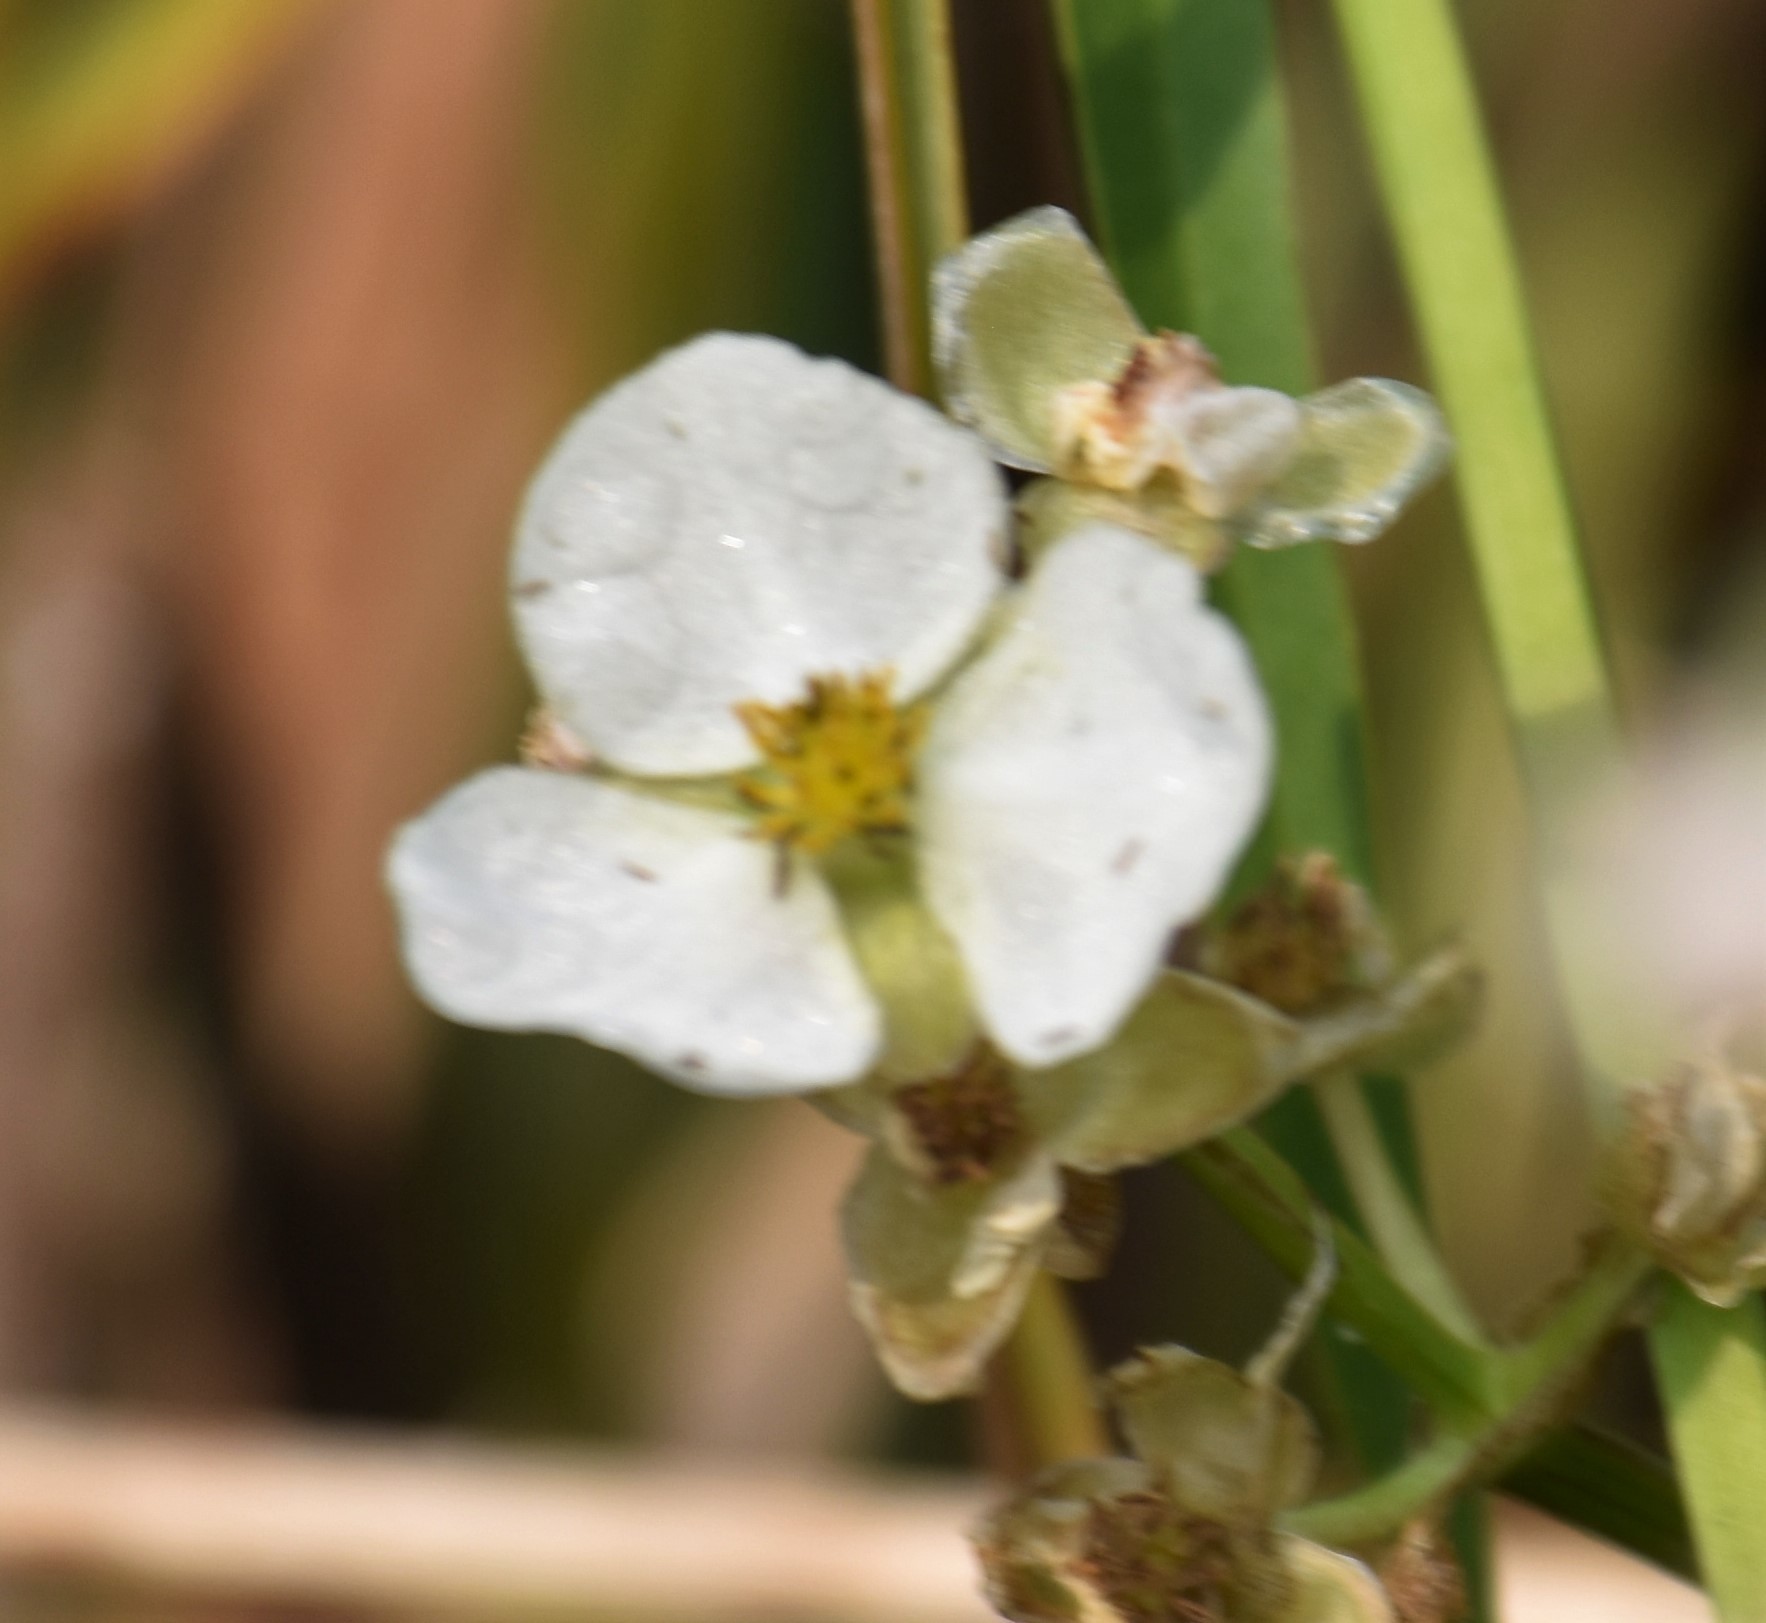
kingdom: Plantae
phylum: Tracheophyta
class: Liliopsida
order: Alismatales
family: Alismataceae
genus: Sagittaria
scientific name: Sagittaria
